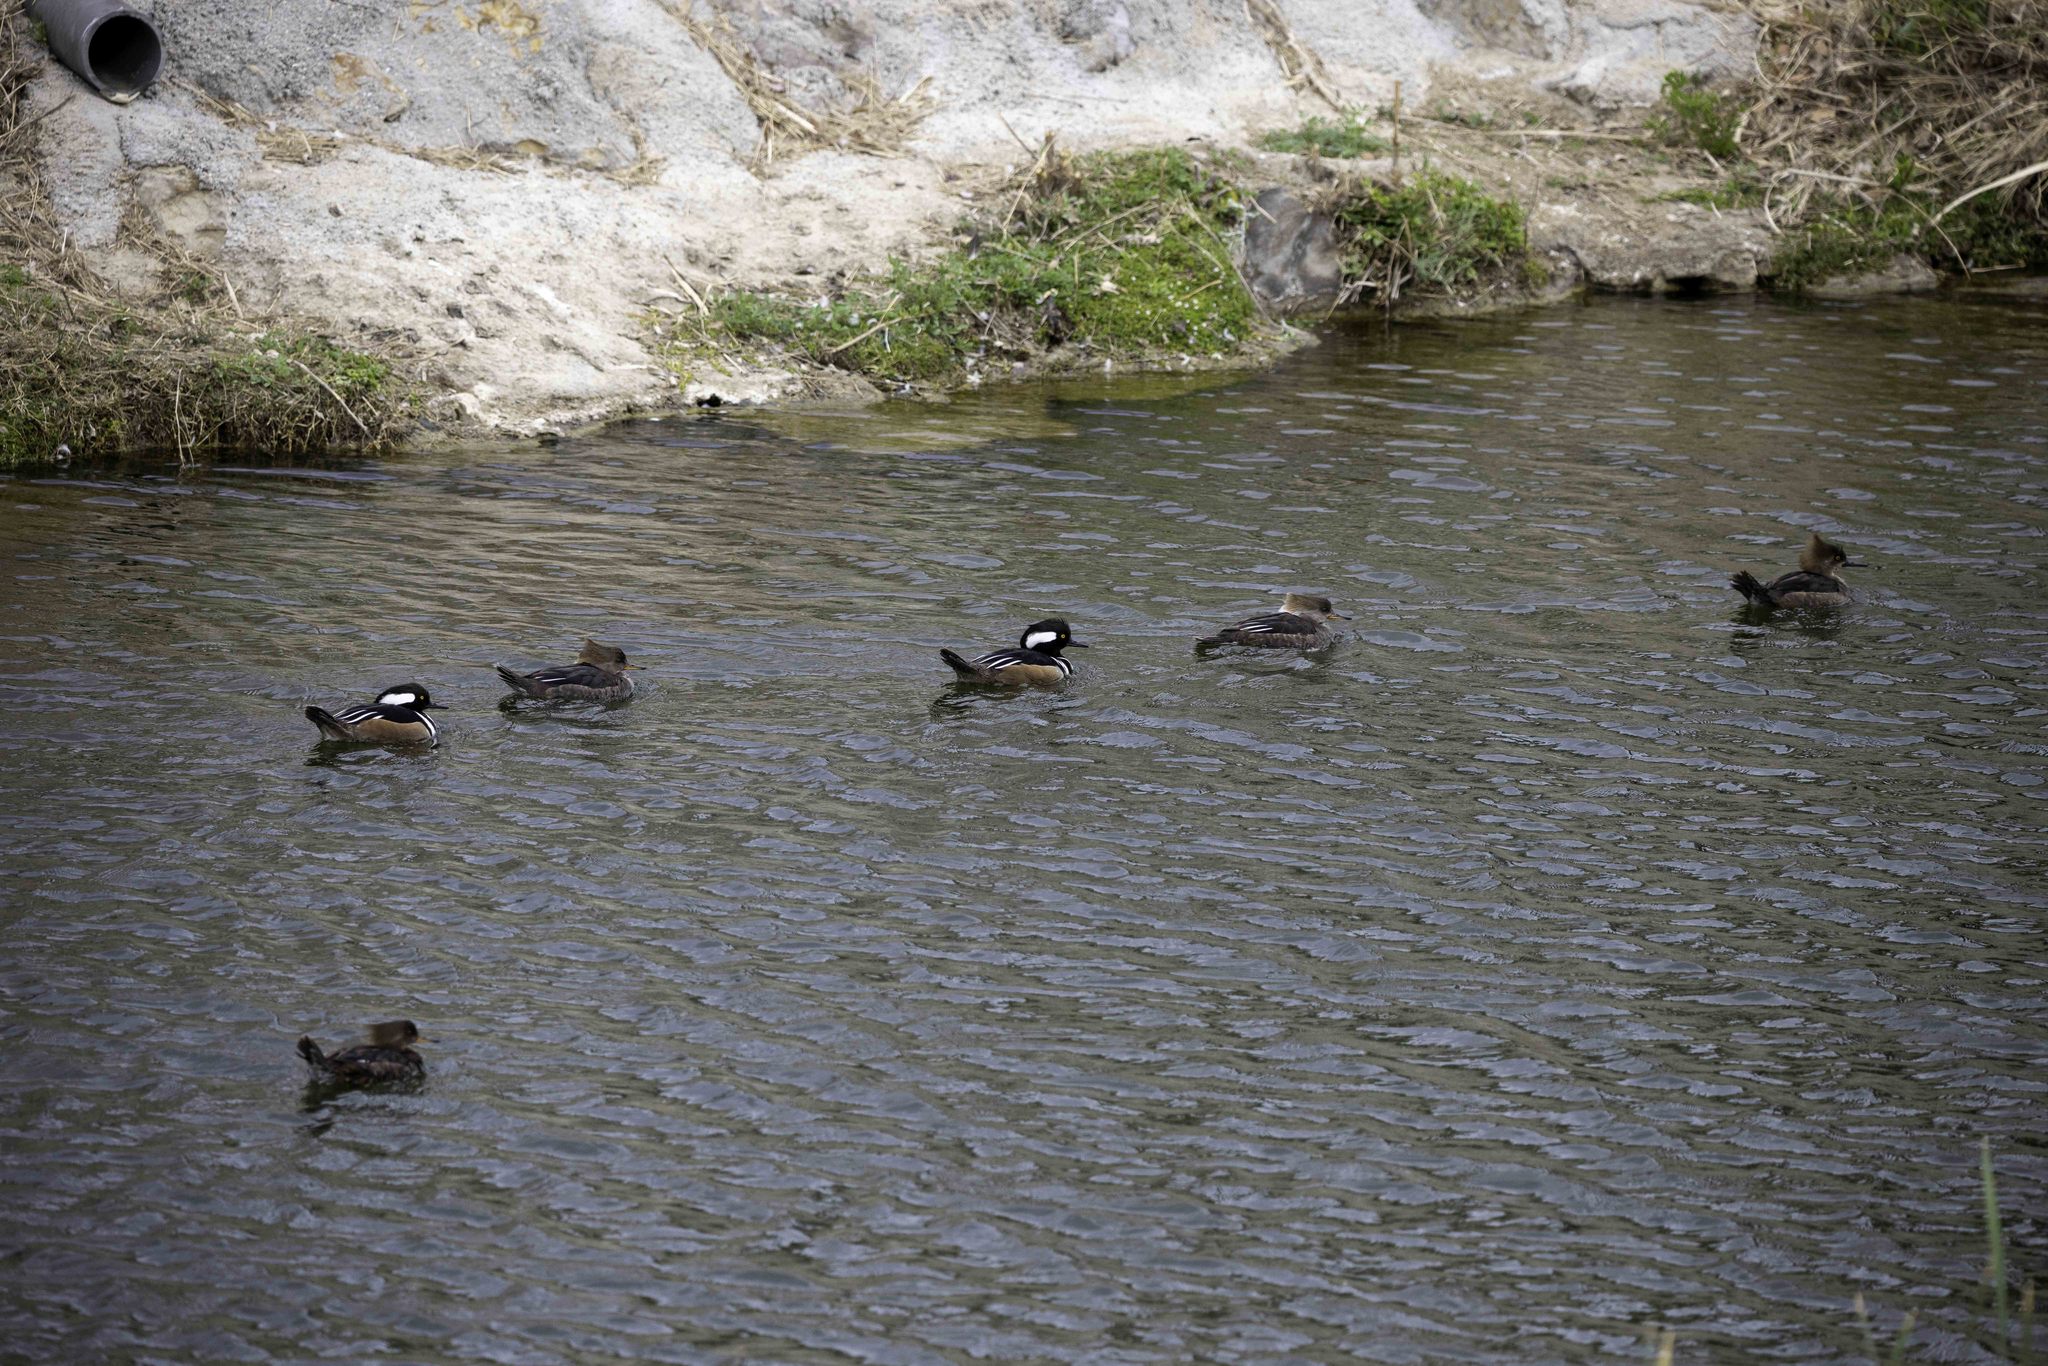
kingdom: Animalia
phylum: Chordata
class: Aves
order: Anseriformes
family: Anatidae
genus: Lophodytes
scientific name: Lophodytes cucullatus
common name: Hooded merganser
